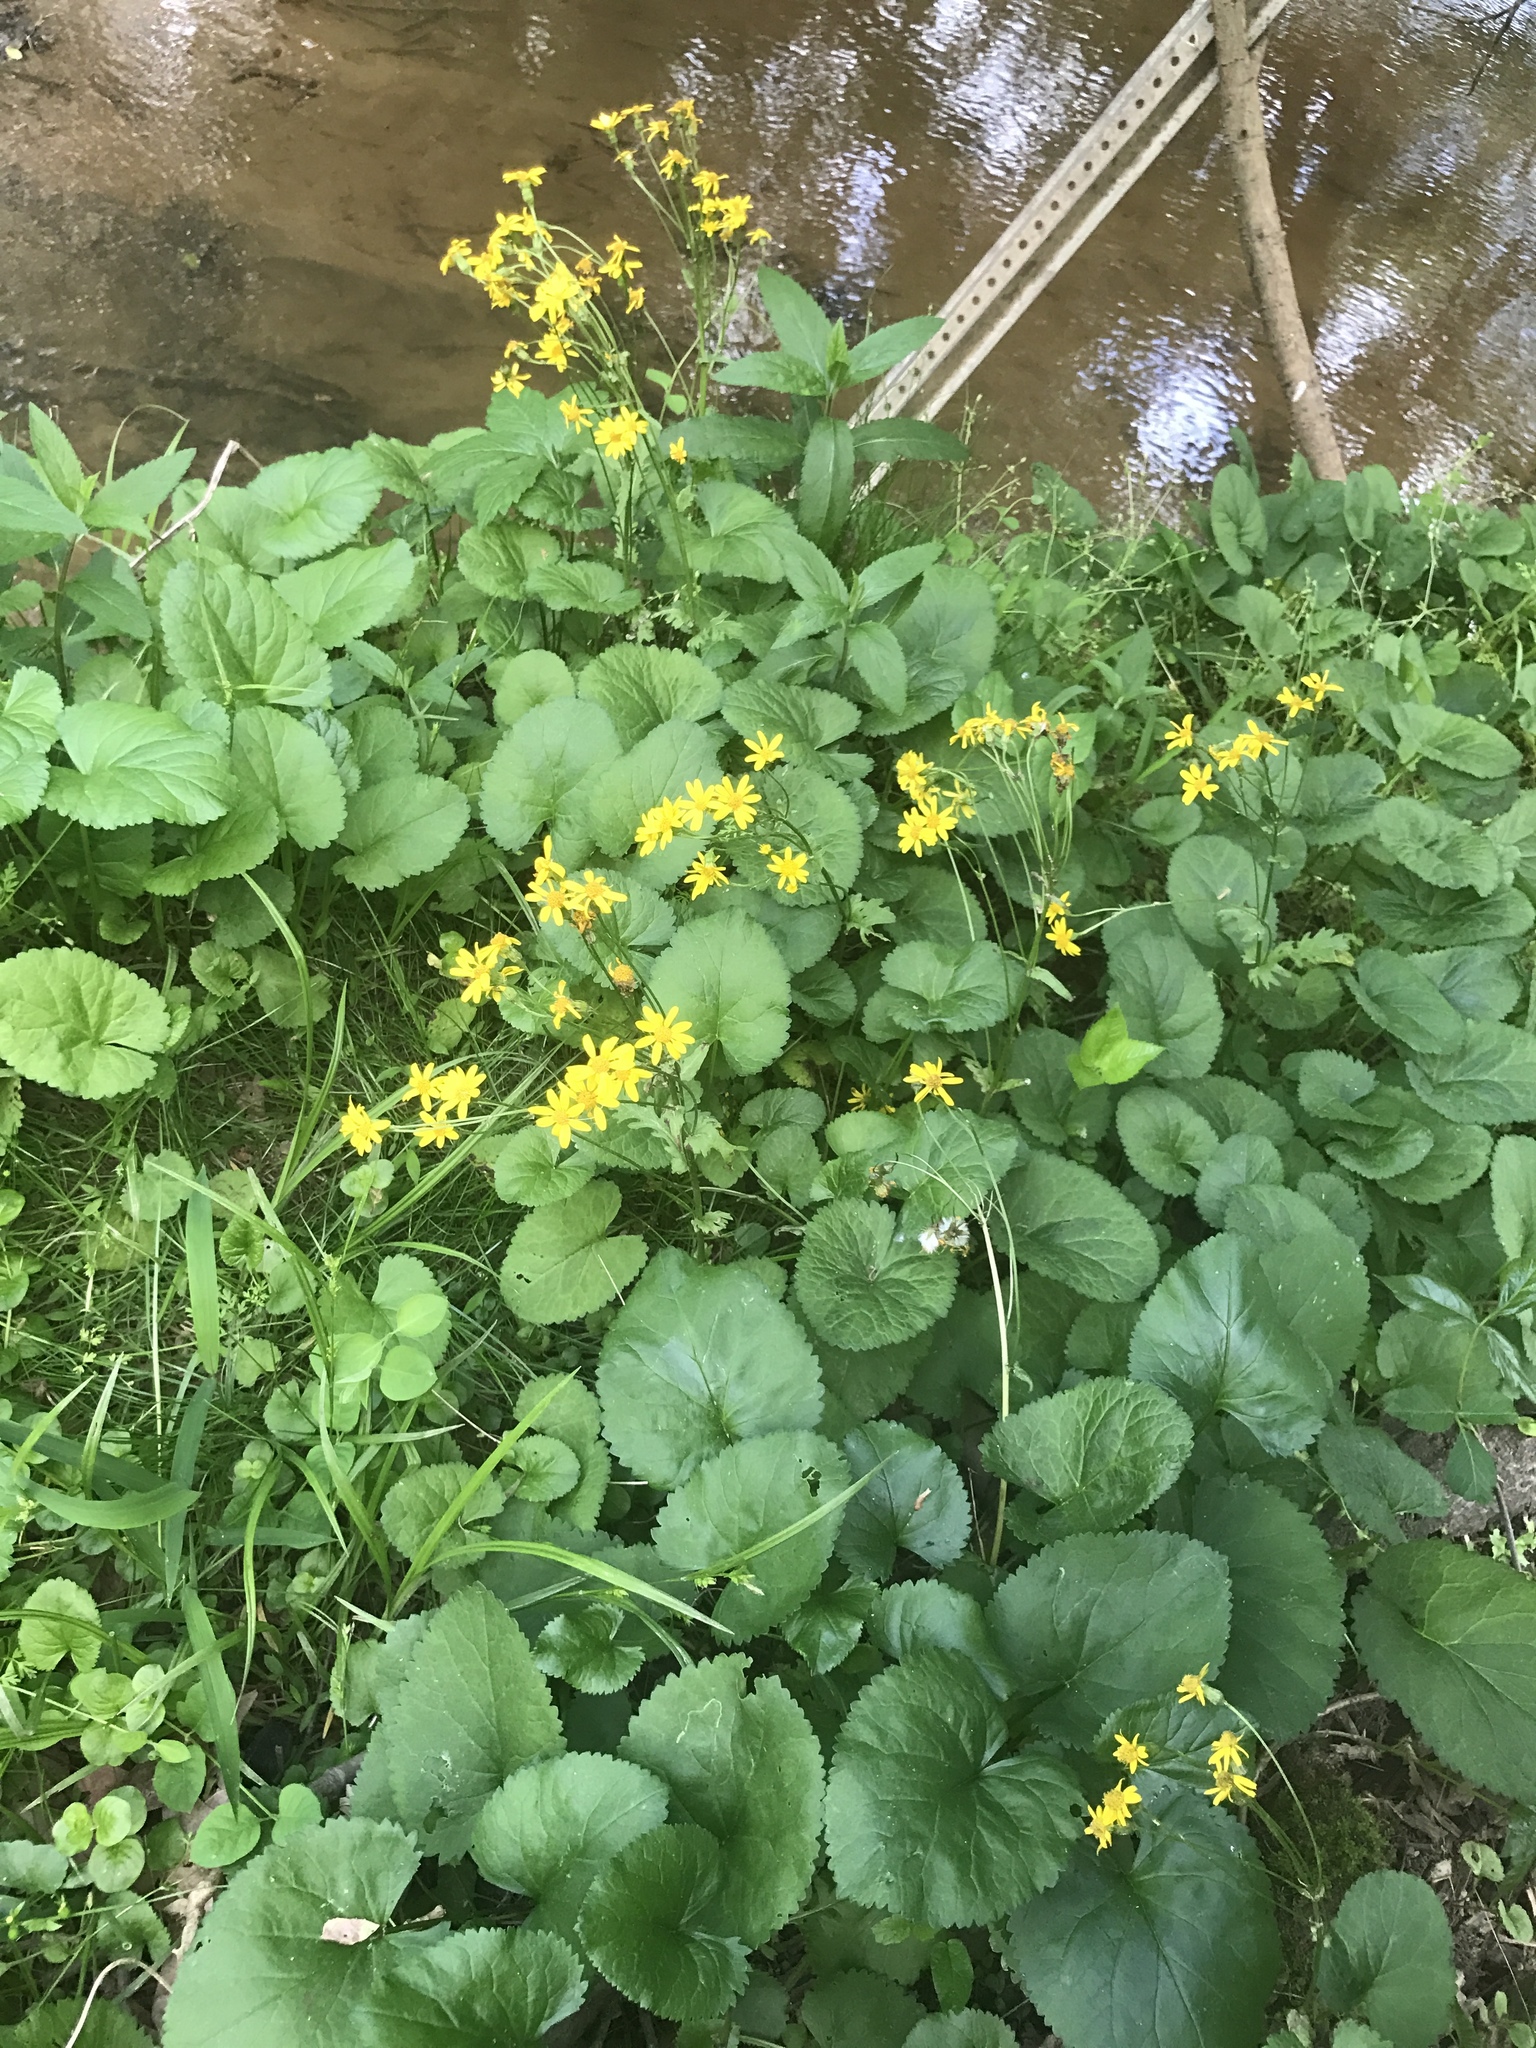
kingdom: Plantae
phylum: Tracheophyta
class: Magnoliopsida
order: Asterales
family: Asteraceae
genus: Packera
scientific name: Packera aurea
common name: Golden groundsel
